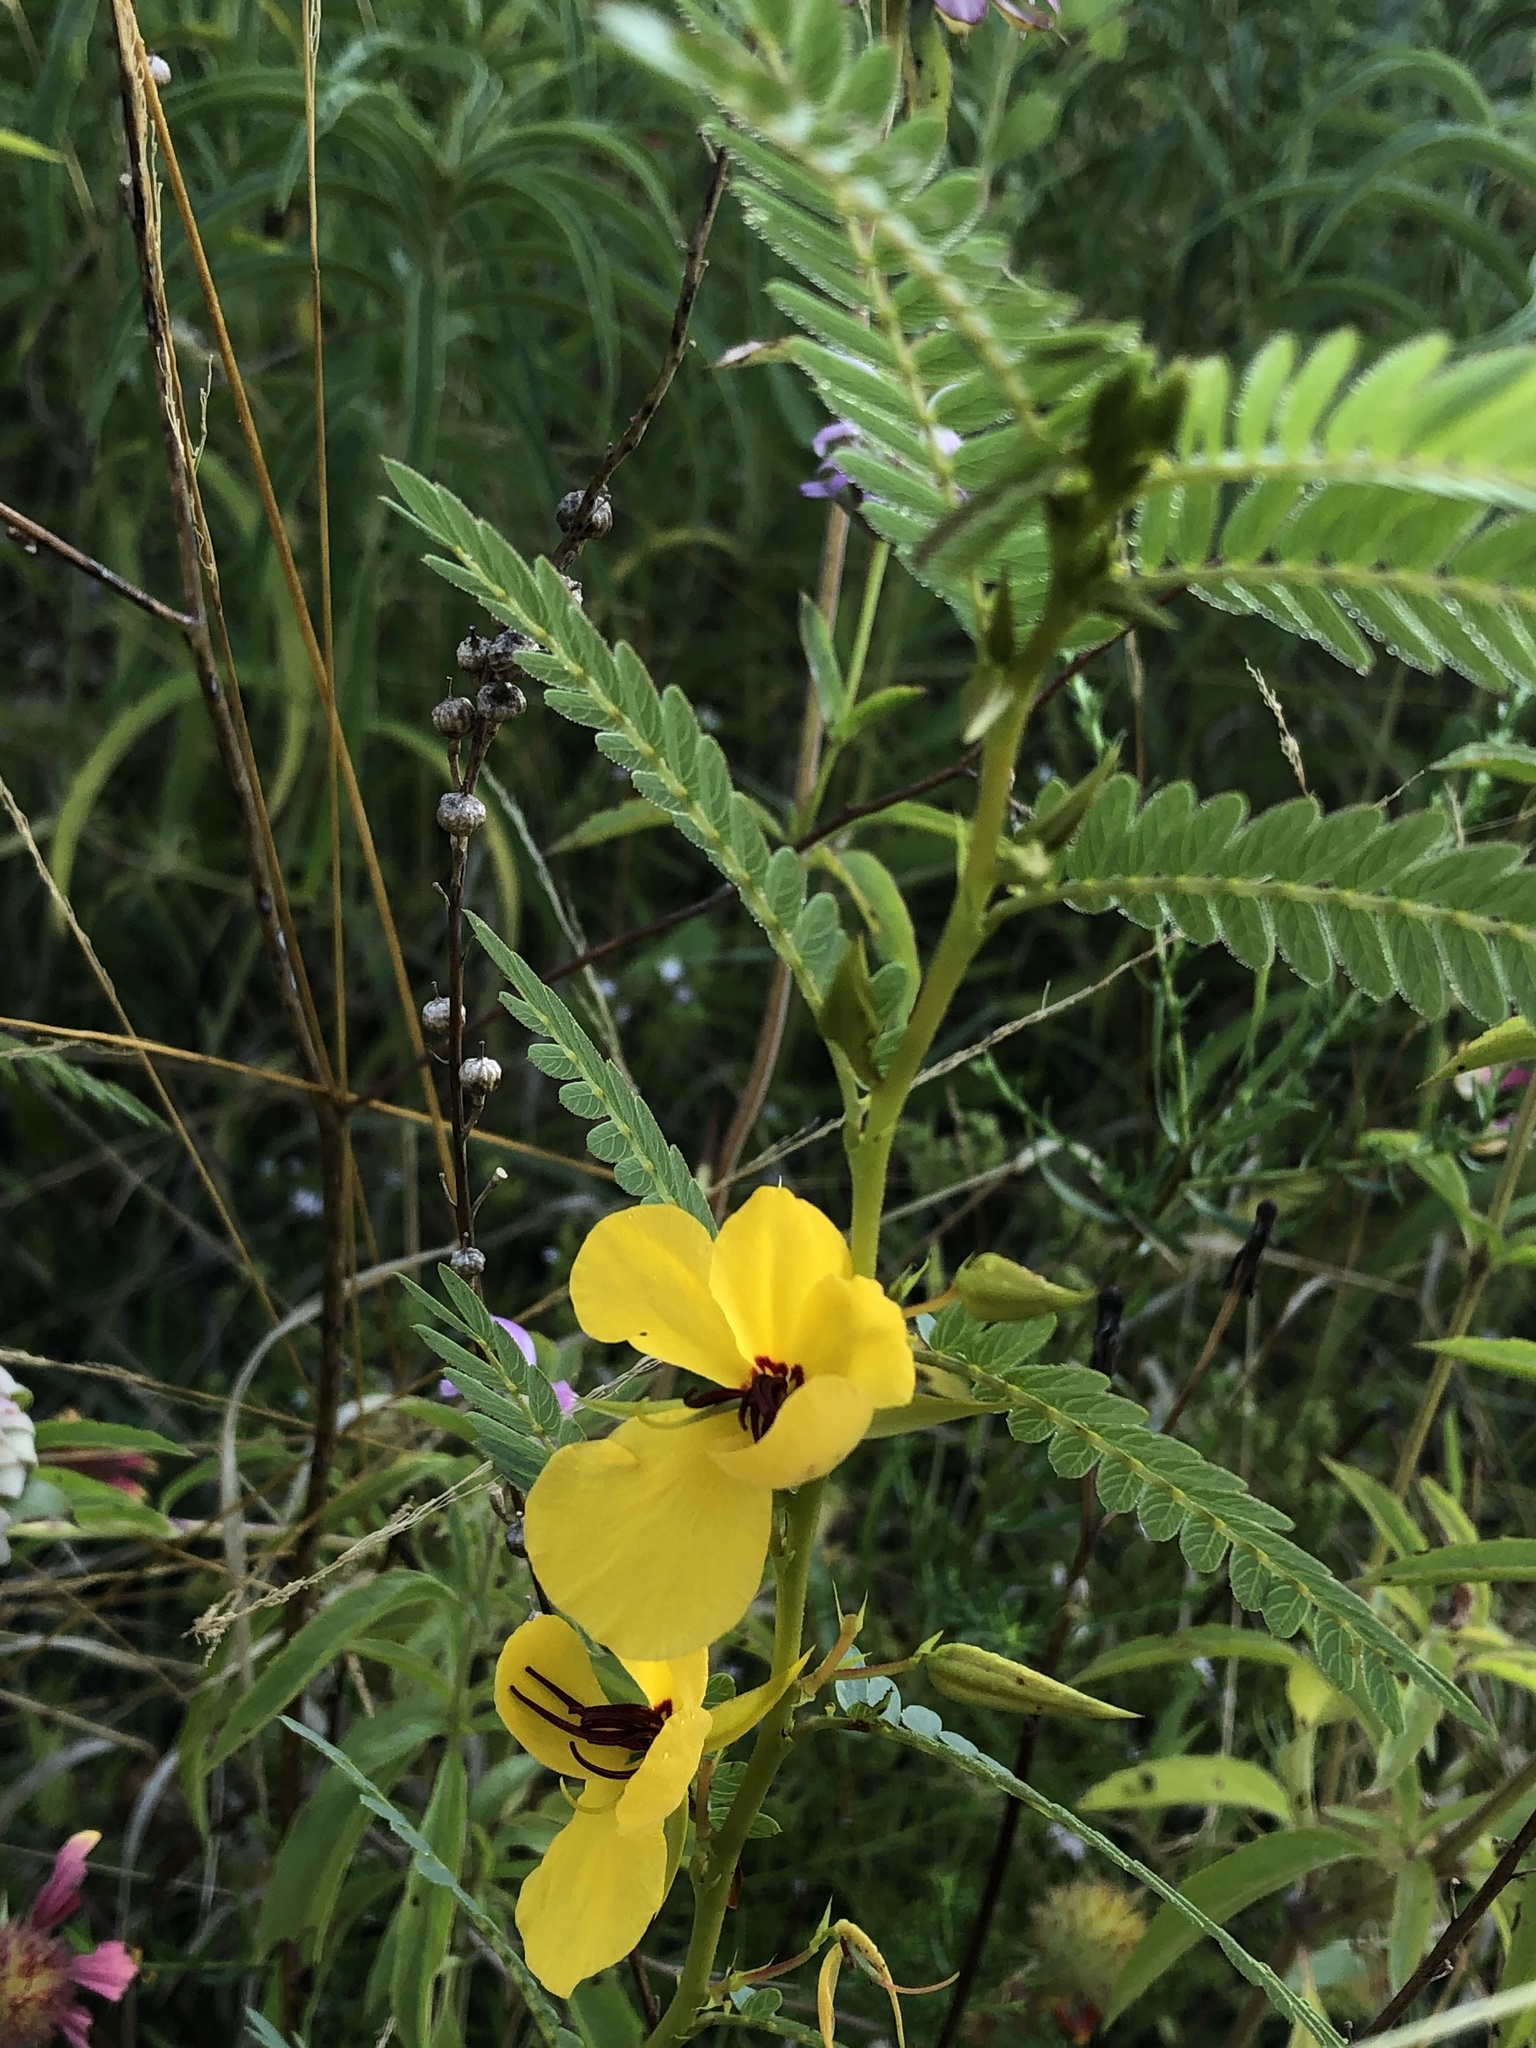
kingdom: Plantae
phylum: Tracheophyta
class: Magnoliopsida
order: Fabales
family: Fabaceae
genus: Chamaecrista
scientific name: Chamaecrista fasciculata
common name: Golden cassia
